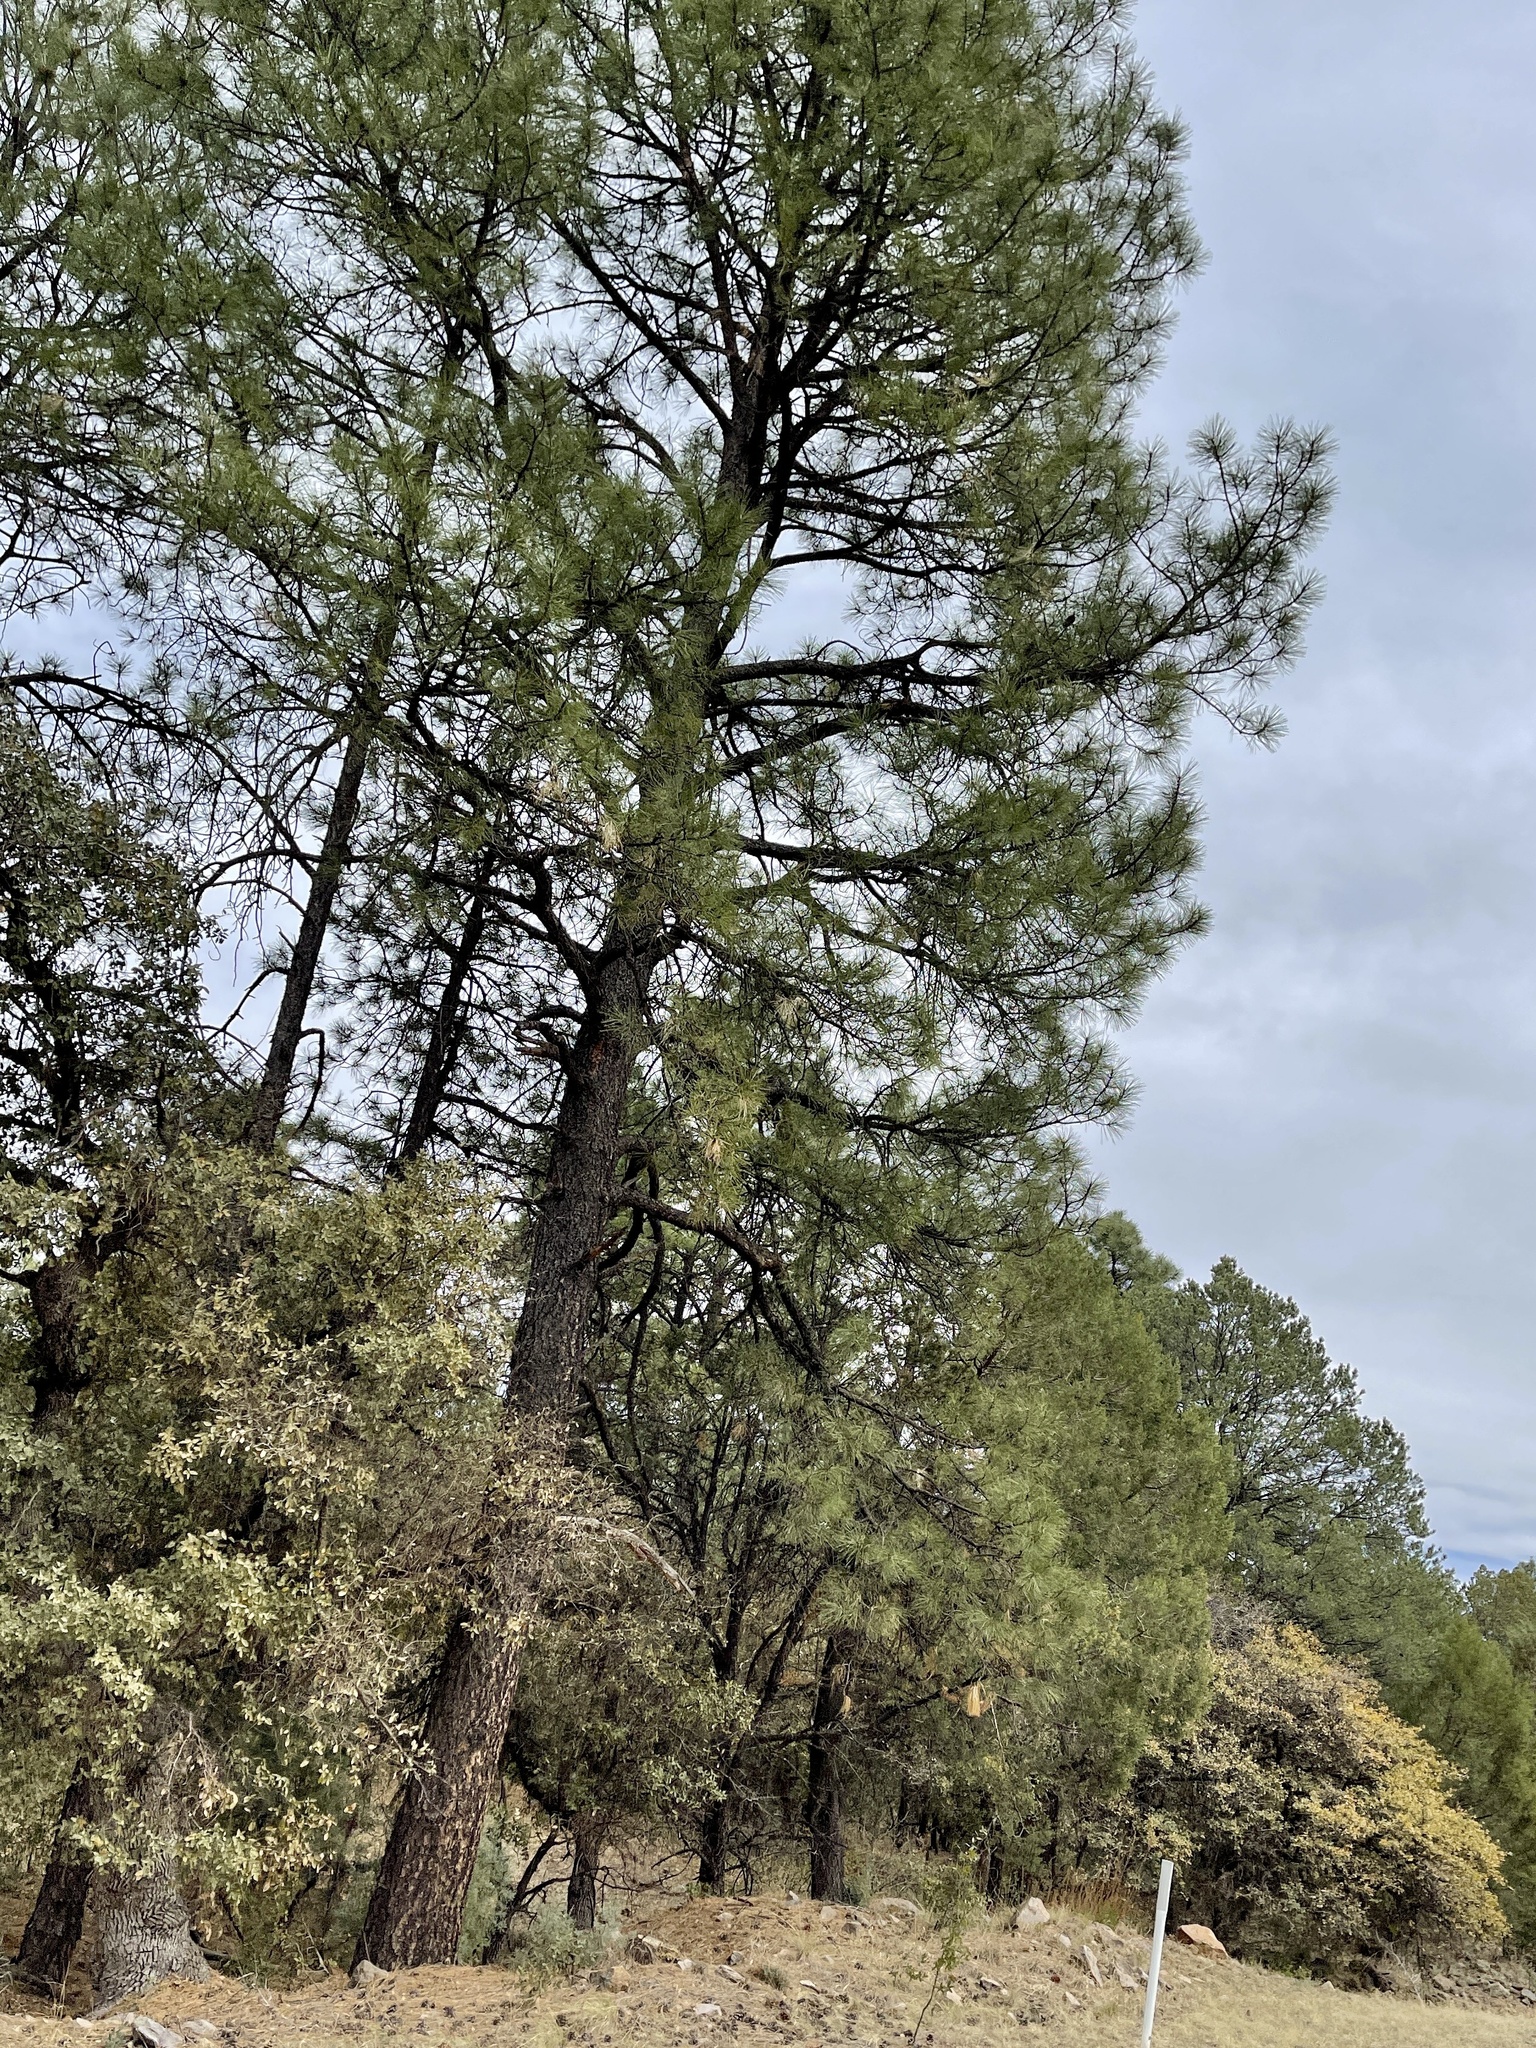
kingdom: Plantae
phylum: Tracheophyta
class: Pinopsida
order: Pinales
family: Pinaceae
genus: Pinus
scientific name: Pinus ponderosa
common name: Western yellow-pine
